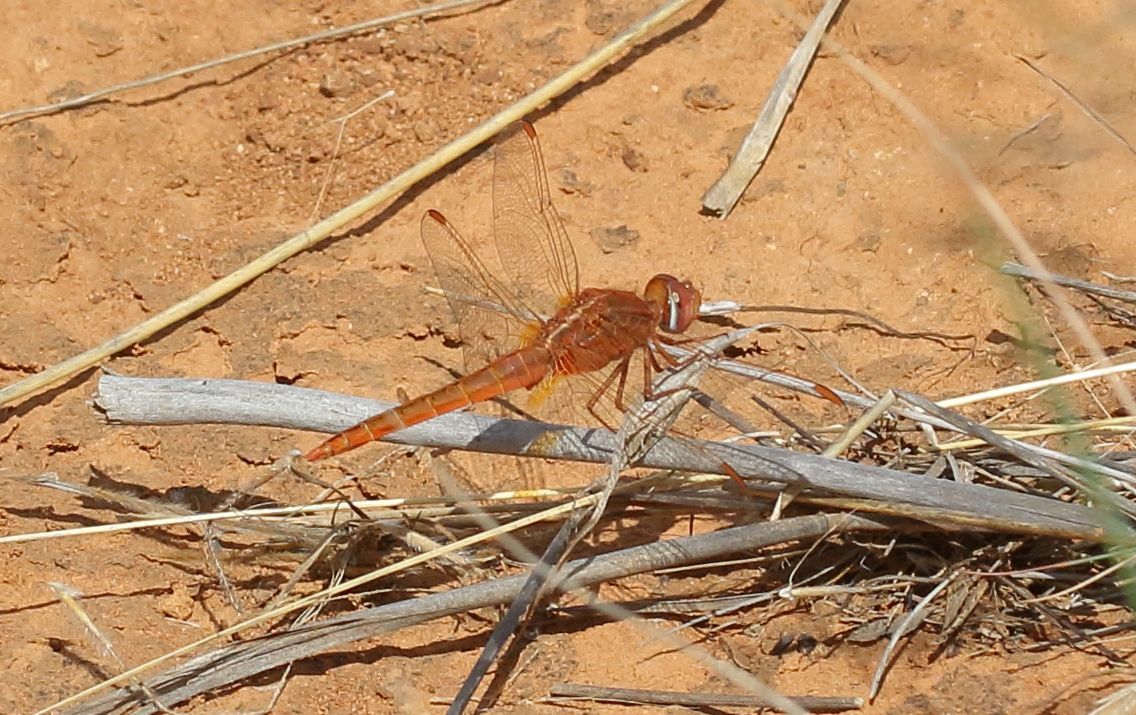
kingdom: Animalia
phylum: Arthropoda
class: Insecta
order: Odonata
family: Libellulidae
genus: Crocothemis
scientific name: Crocothemis erythraea
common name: Scarlet dragonfly
